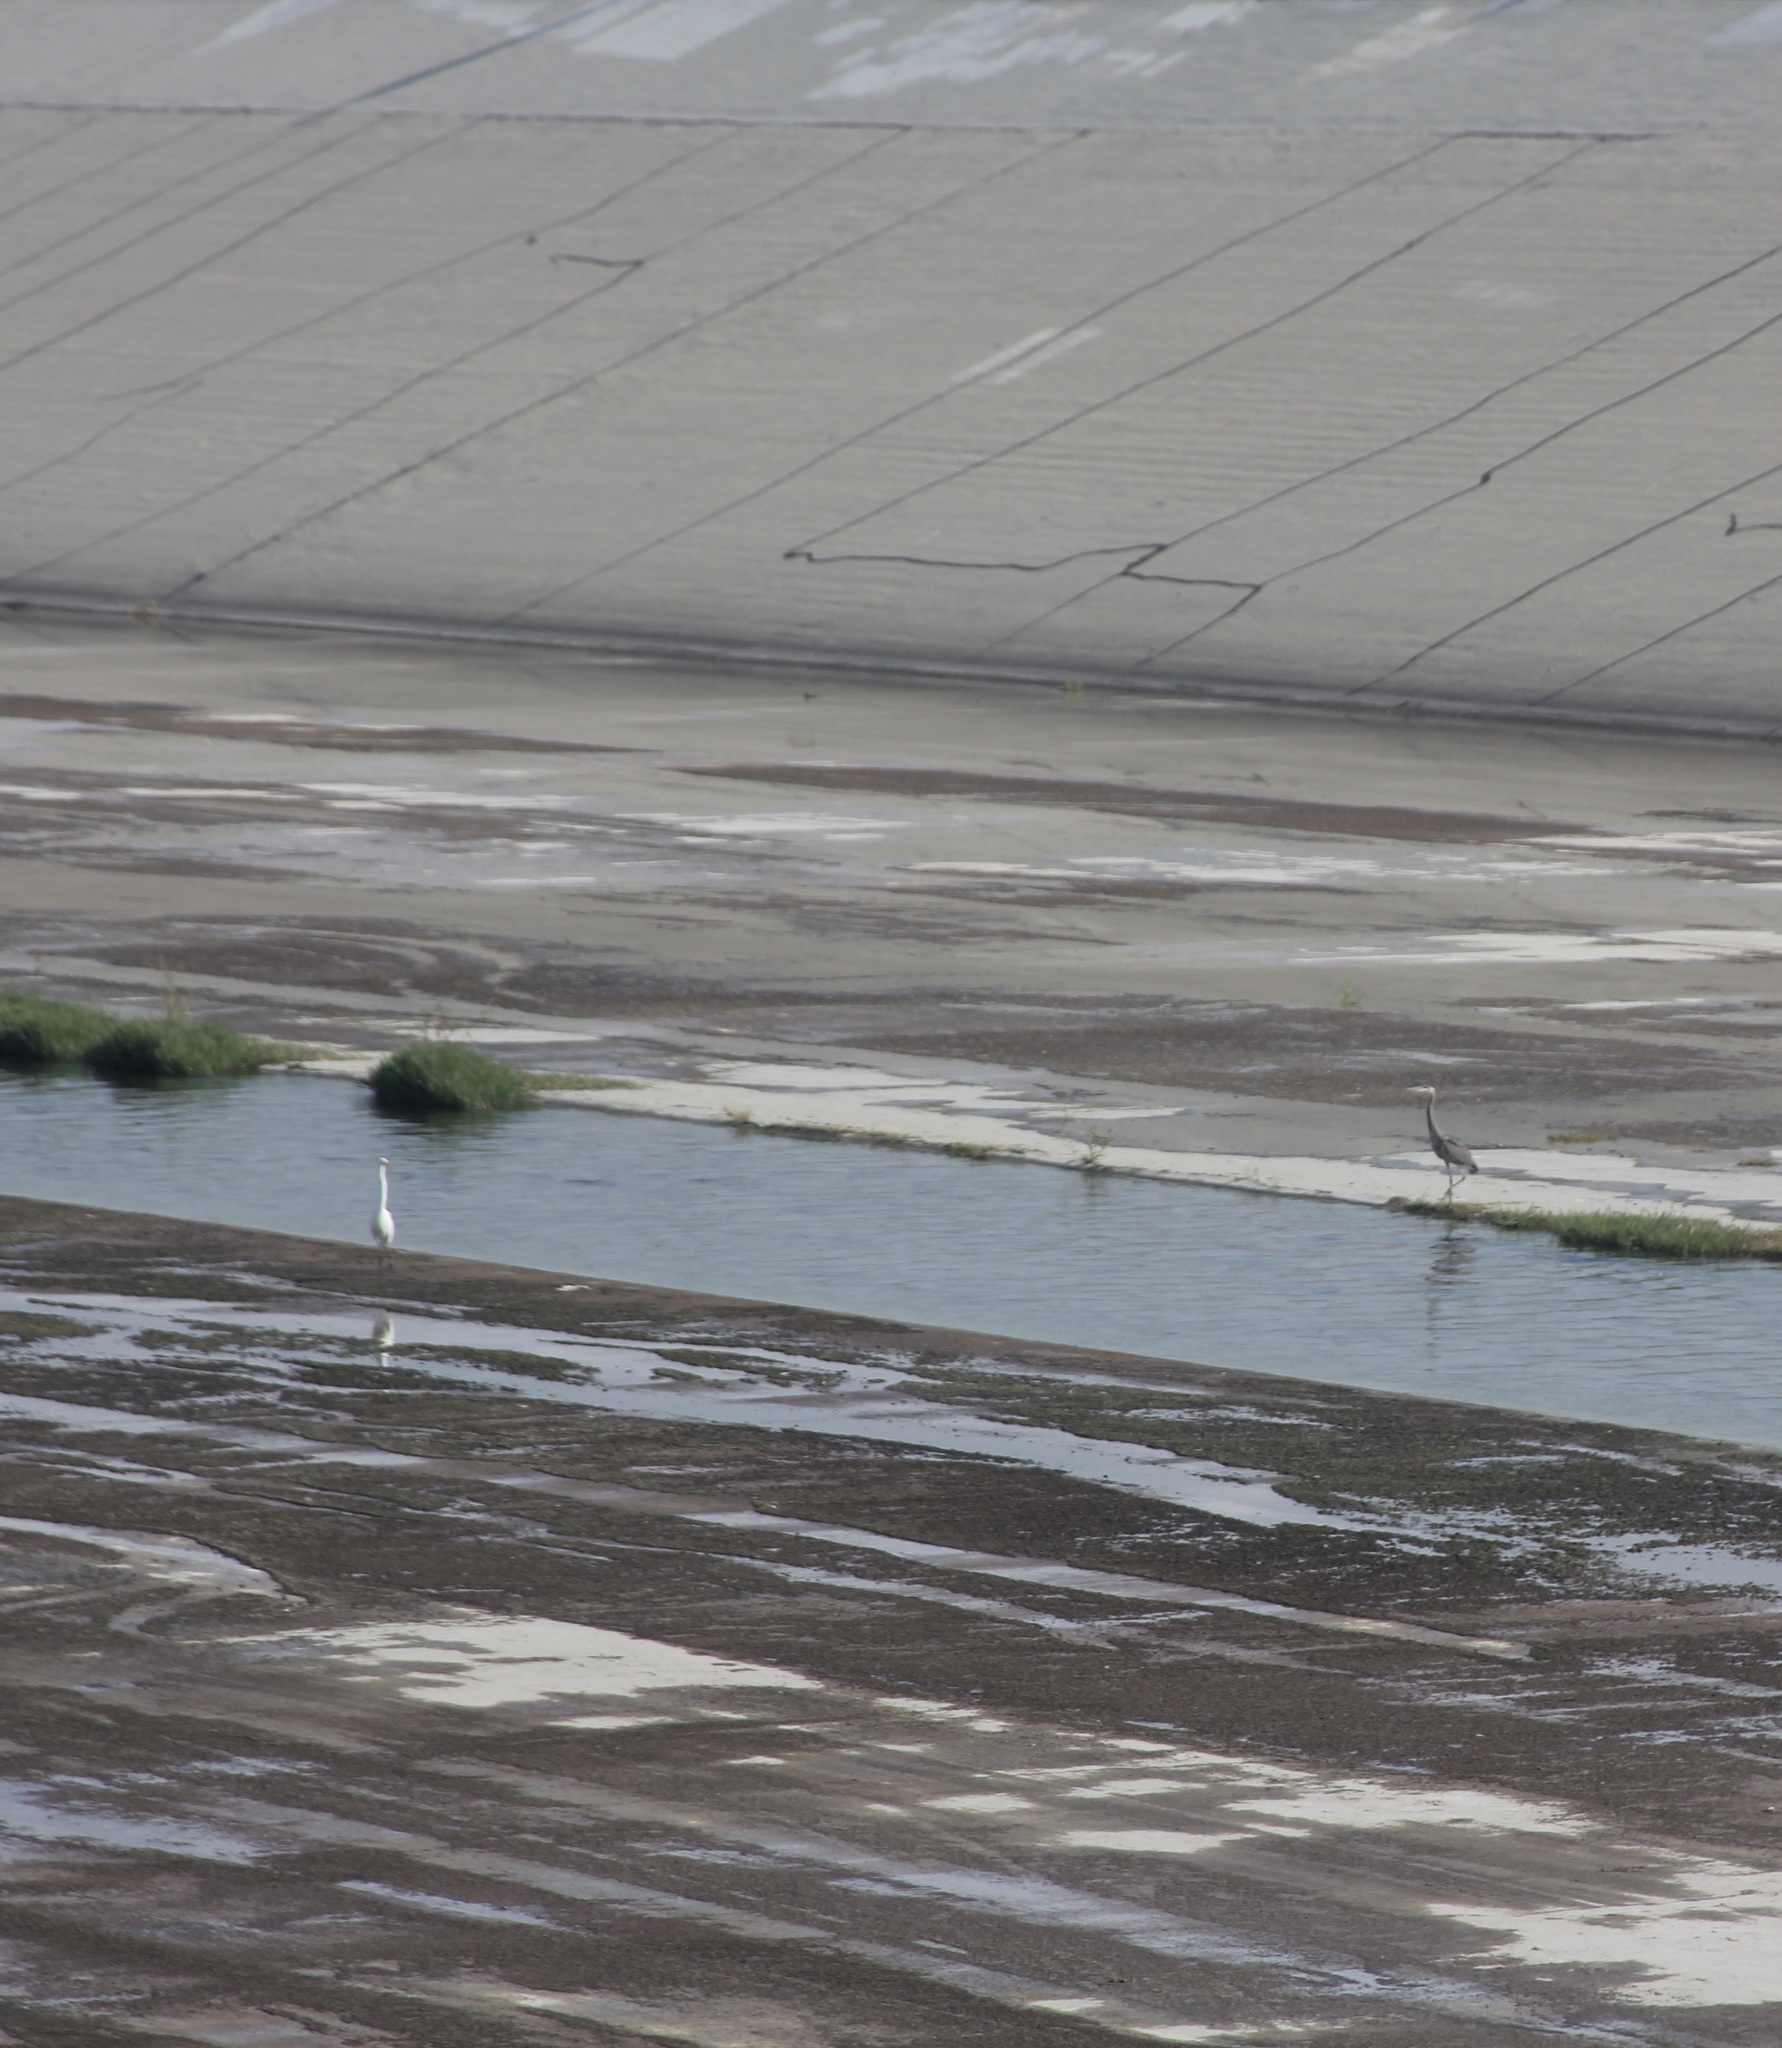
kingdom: Animalia
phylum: Chordata
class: Aves
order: Pelecaniformes
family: Ardeidae
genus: Ardea
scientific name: Ardea alba
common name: Great egret
